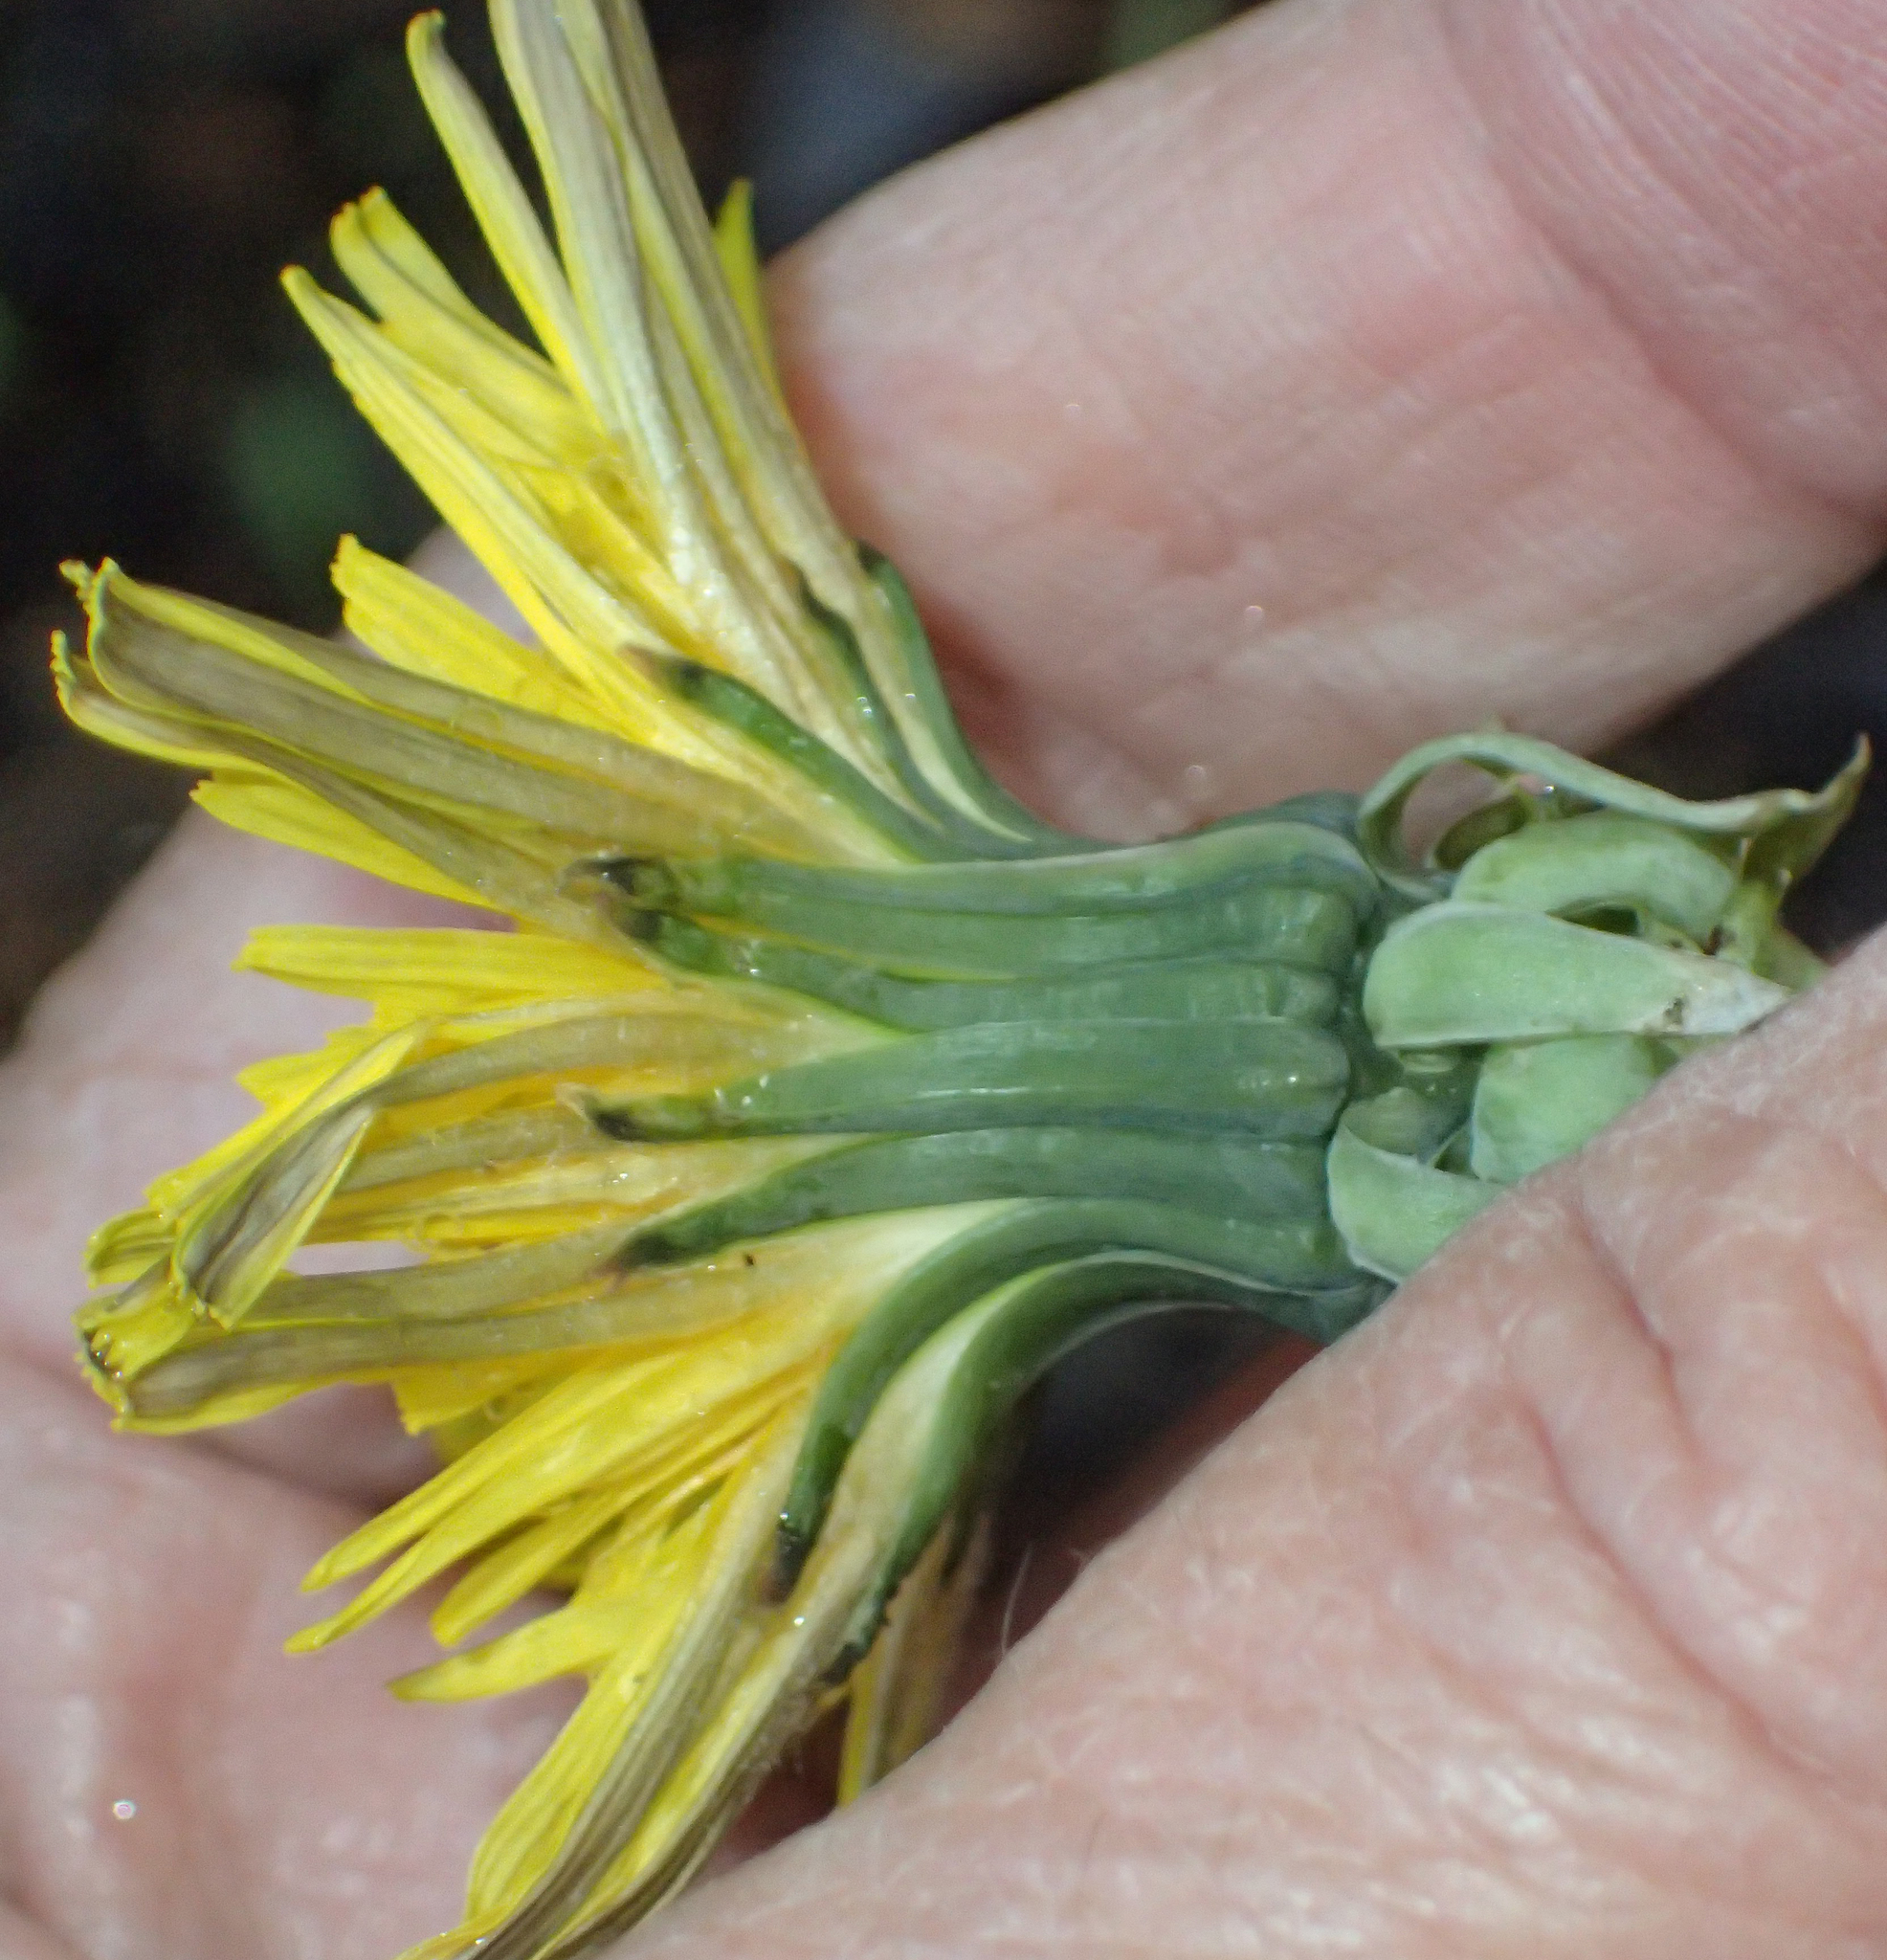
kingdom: Plantae
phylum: Tracheophyta
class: Magnoliopsida
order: Asterales
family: Asteraceae
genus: Taraxacum
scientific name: Taraxacum officinale
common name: Common dandelion
